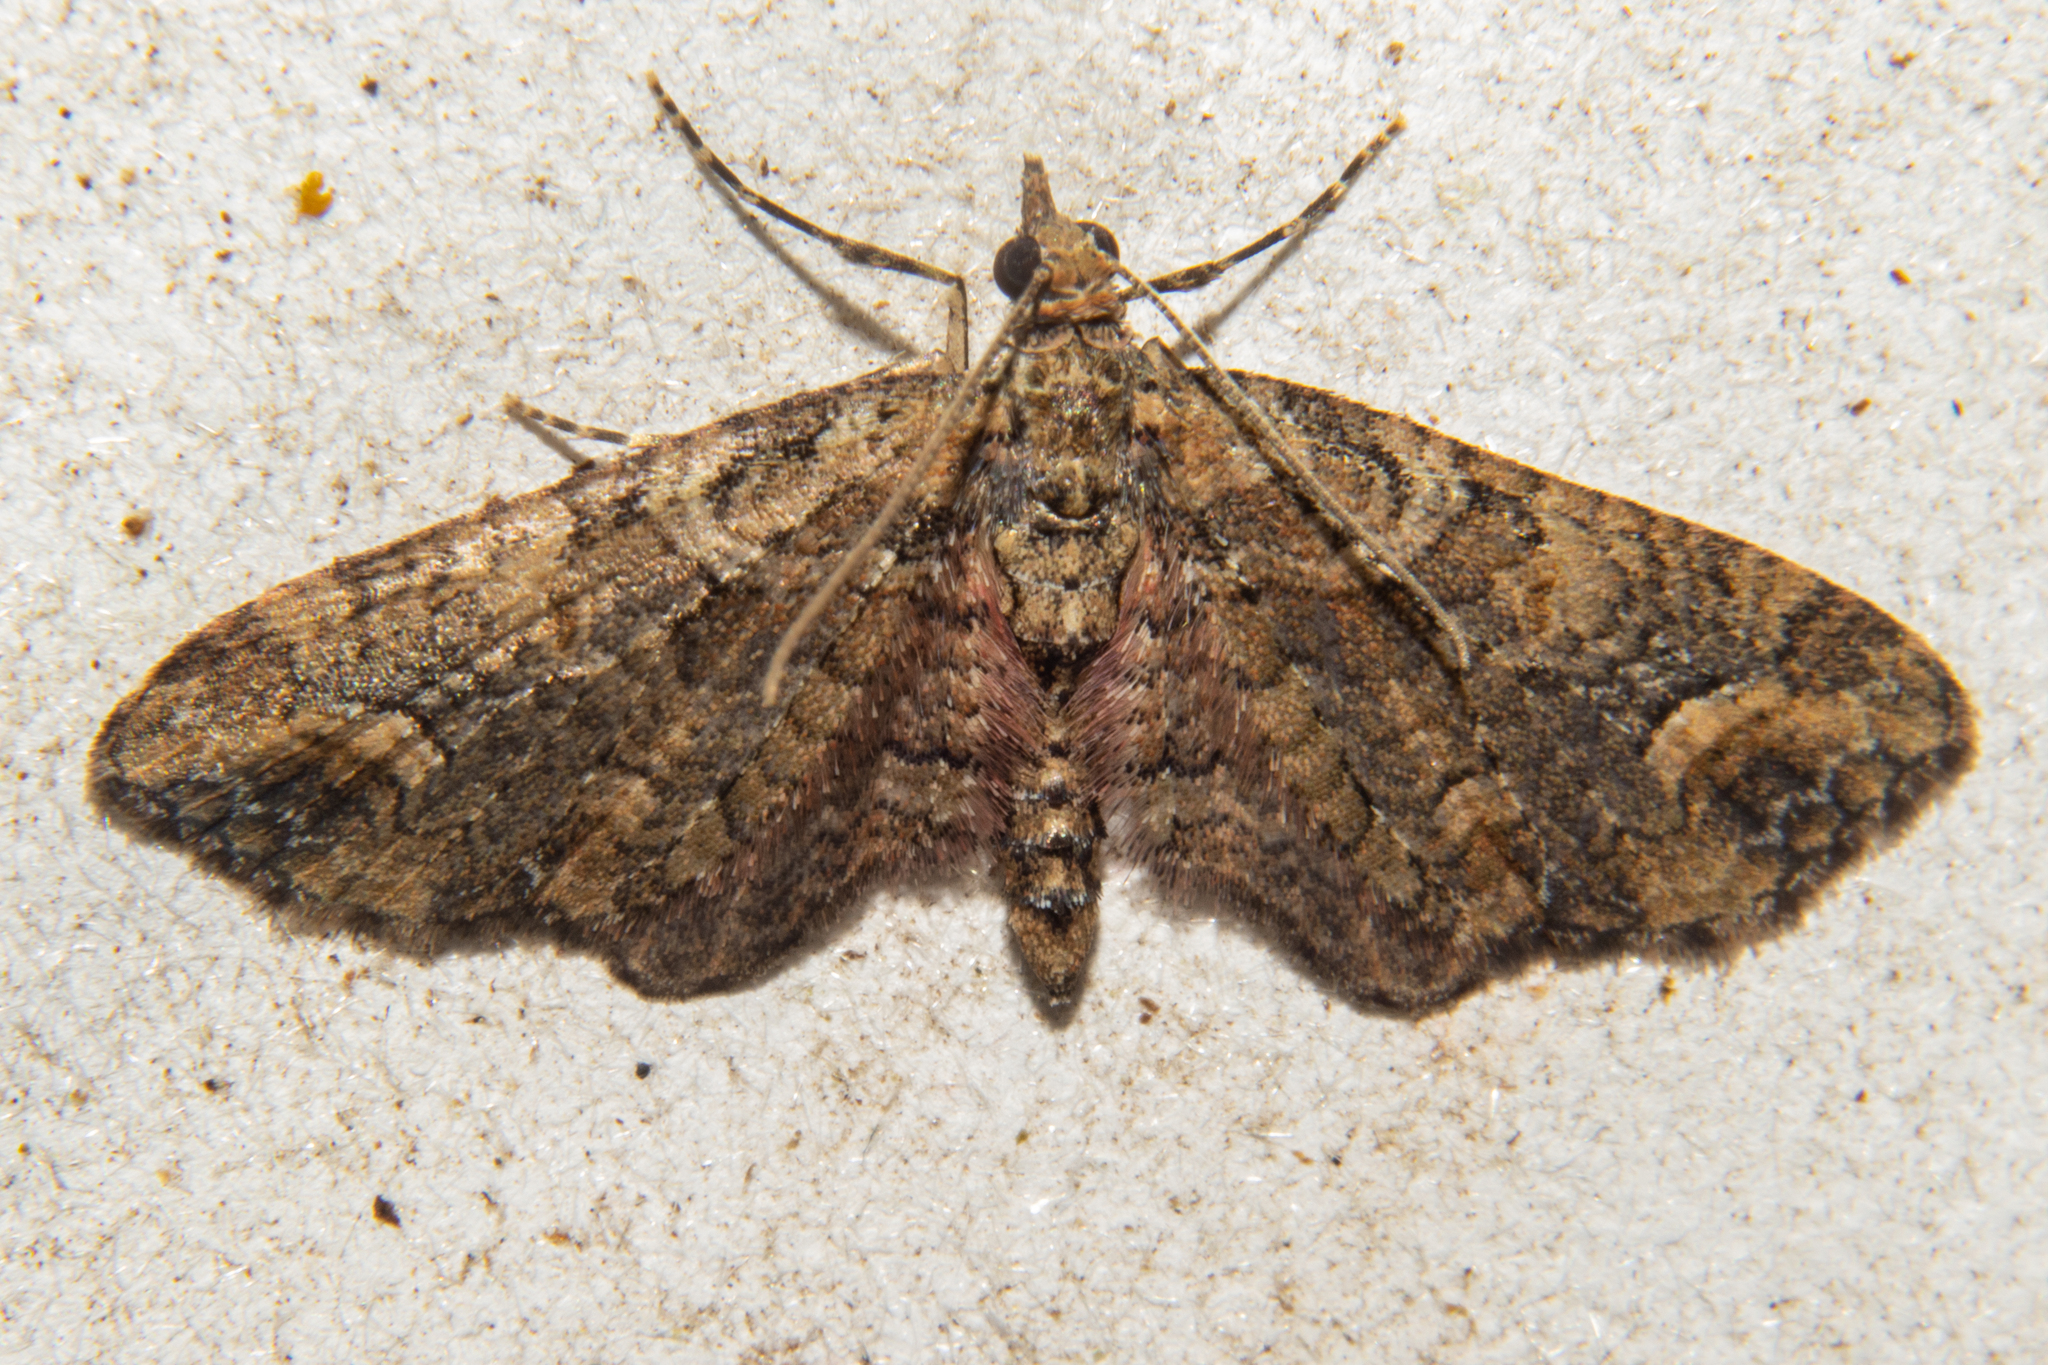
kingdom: Animalia
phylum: Arthropoda
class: Insecta
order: Lepidoptera
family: Geometridae
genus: Idaea
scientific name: Idaea mutanda
